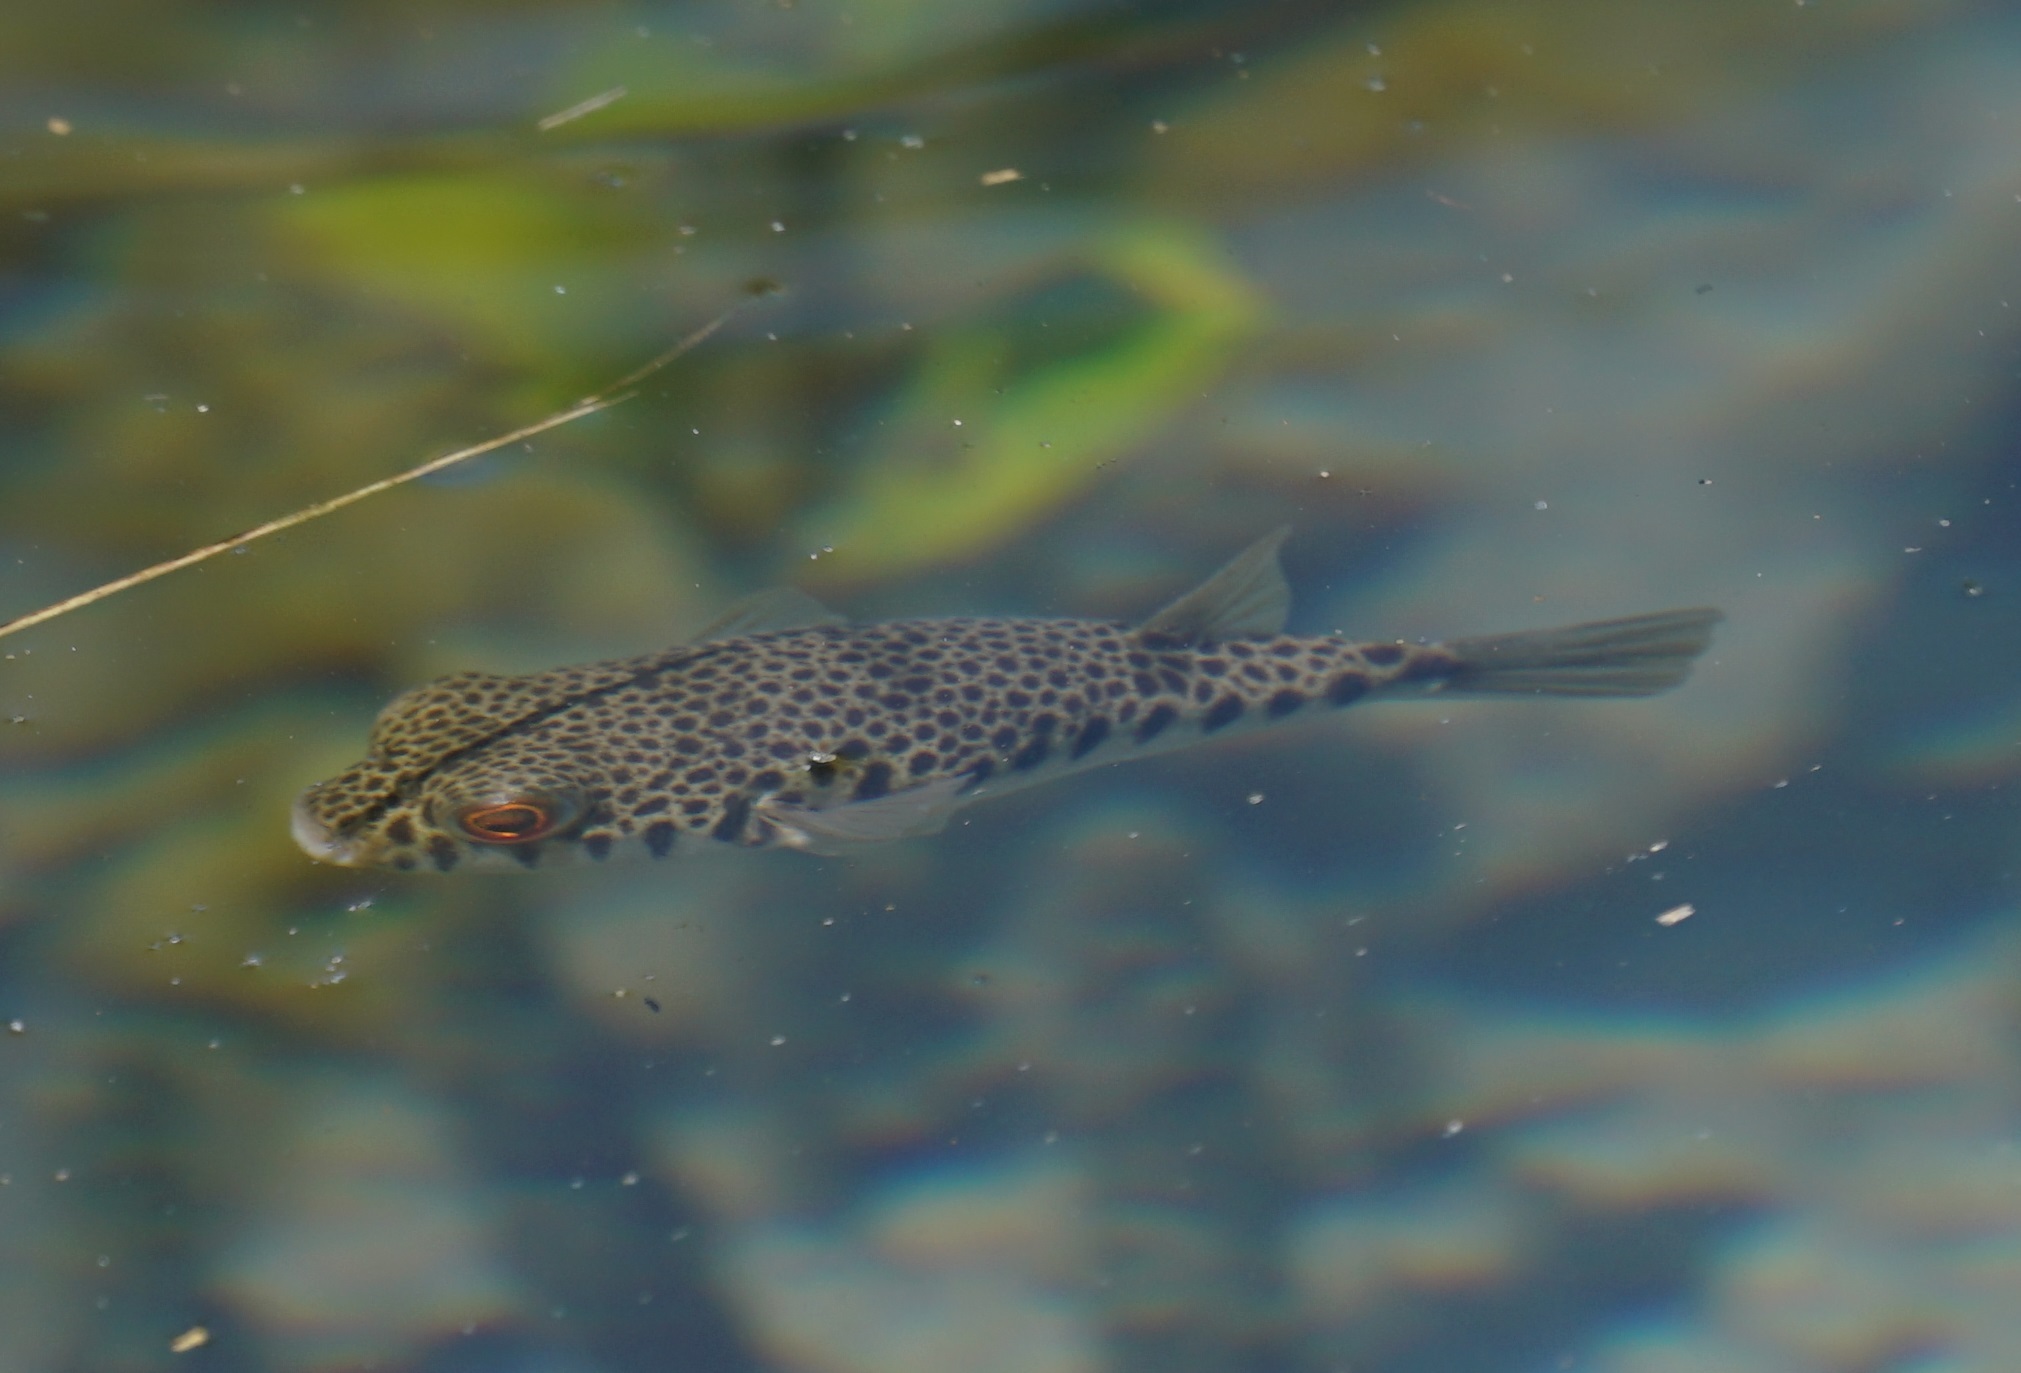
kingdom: Animalia
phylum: Chordata
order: Tetraodontiformes
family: Tetraodontidae
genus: Tetractenos
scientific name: Tetractenos hamiltoni
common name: Common toadfish
